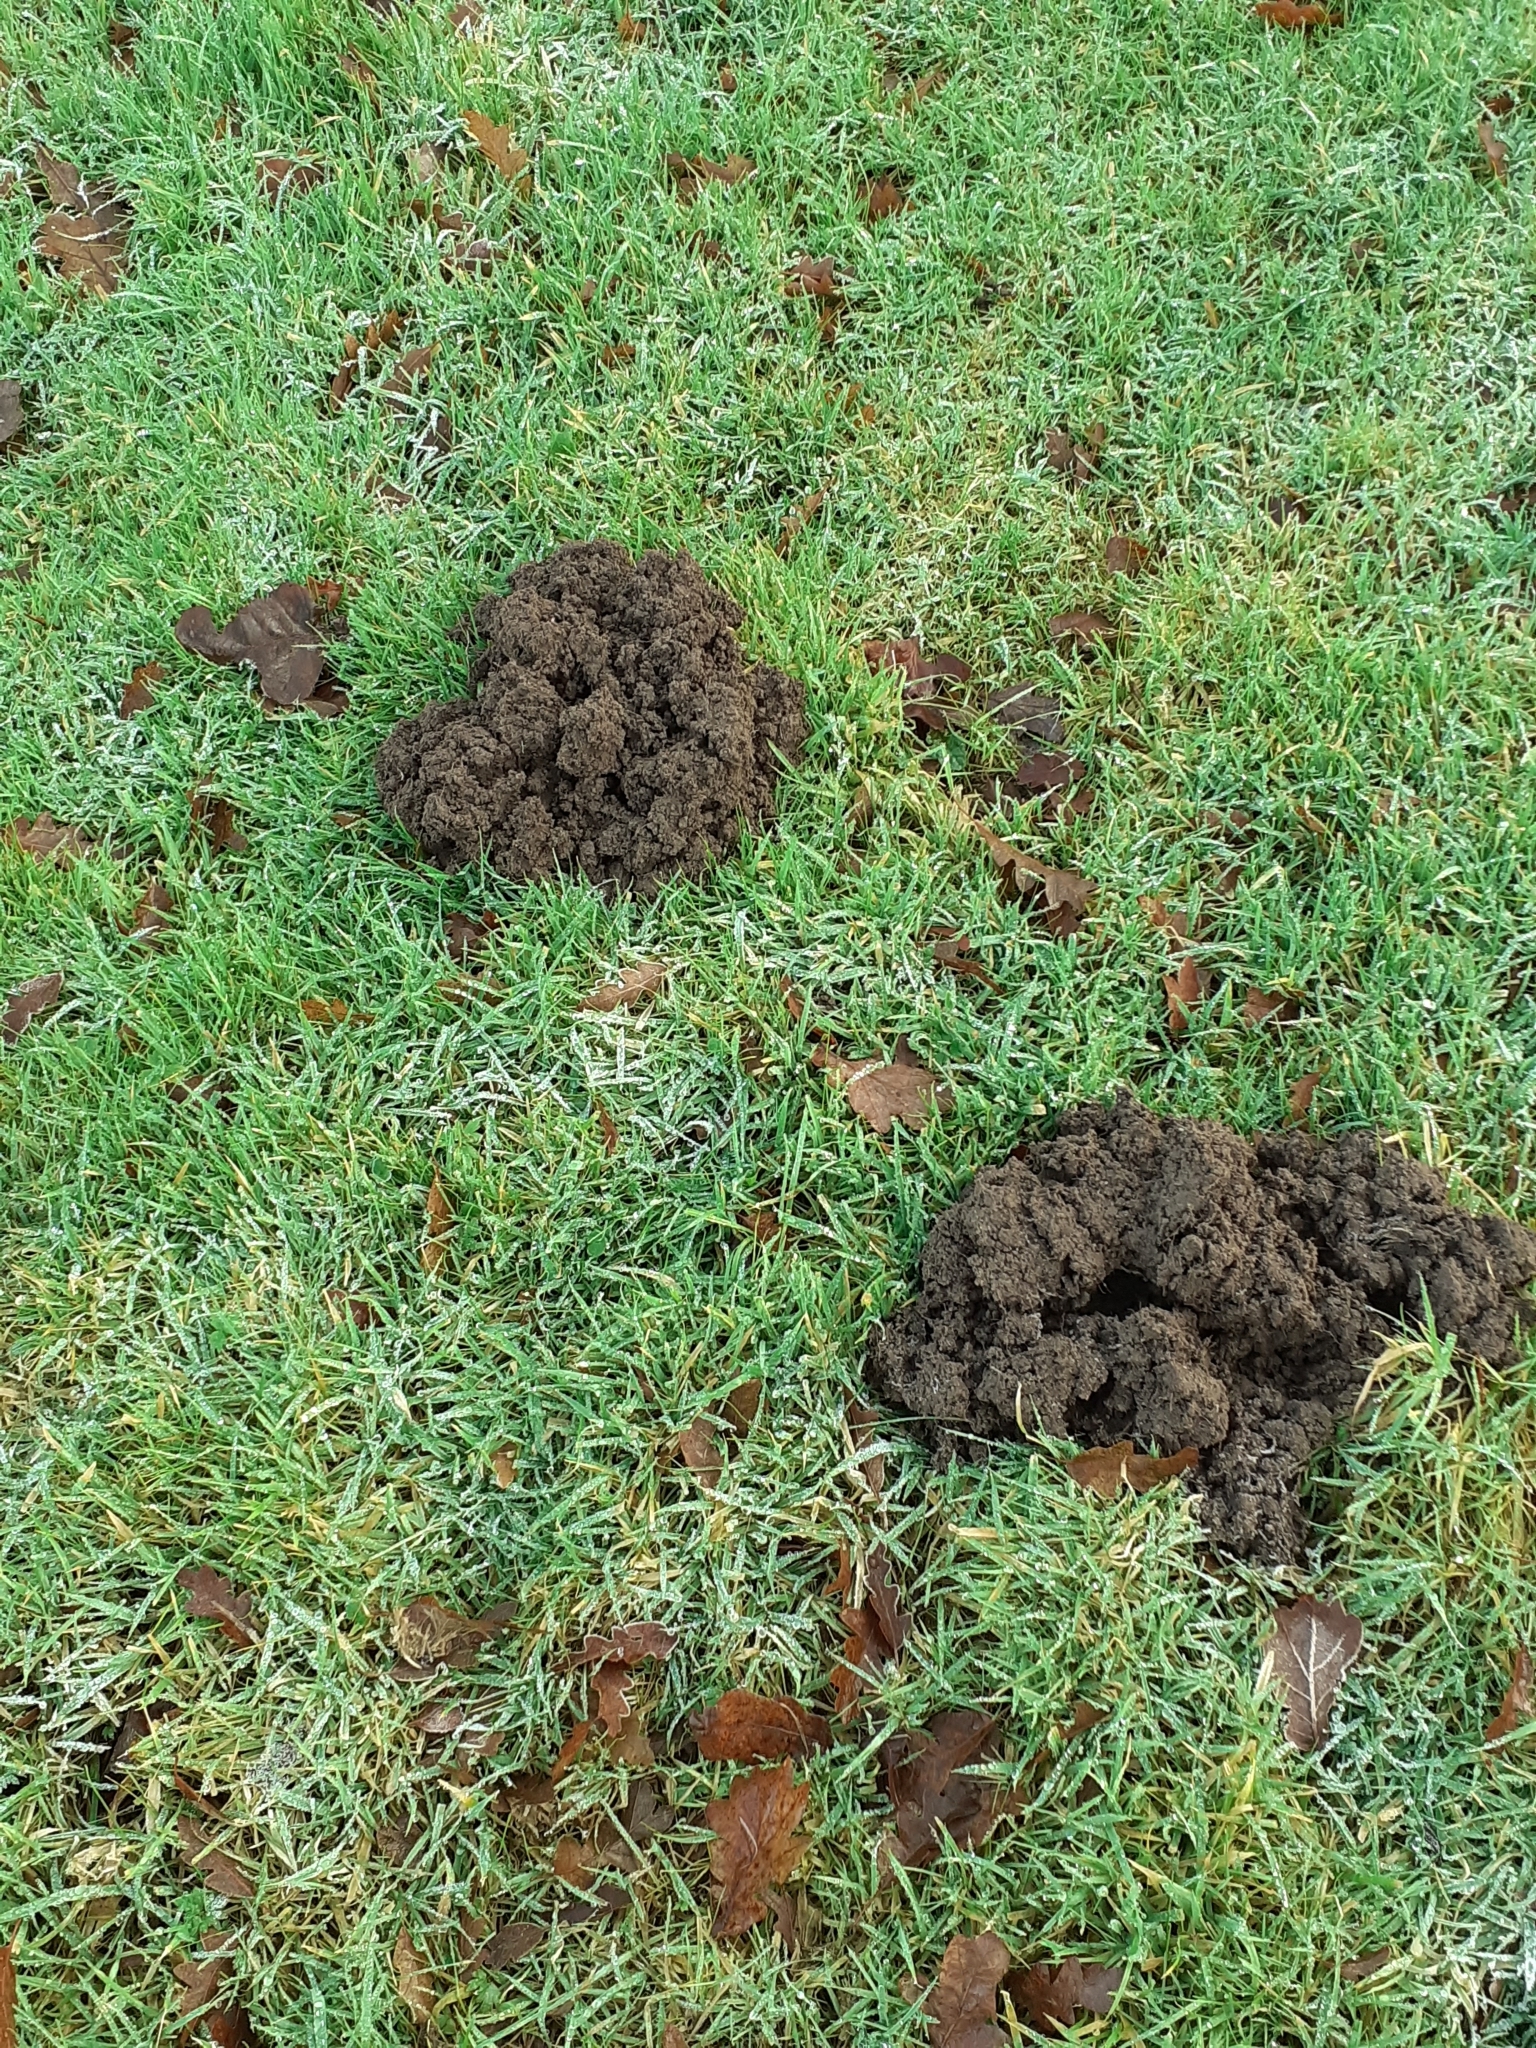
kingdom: Animalia
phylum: Chordata
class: Mammalia
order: Soricomorpha
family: Talpidae
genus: Talpa
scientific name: Talpa europaea
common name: European mole
